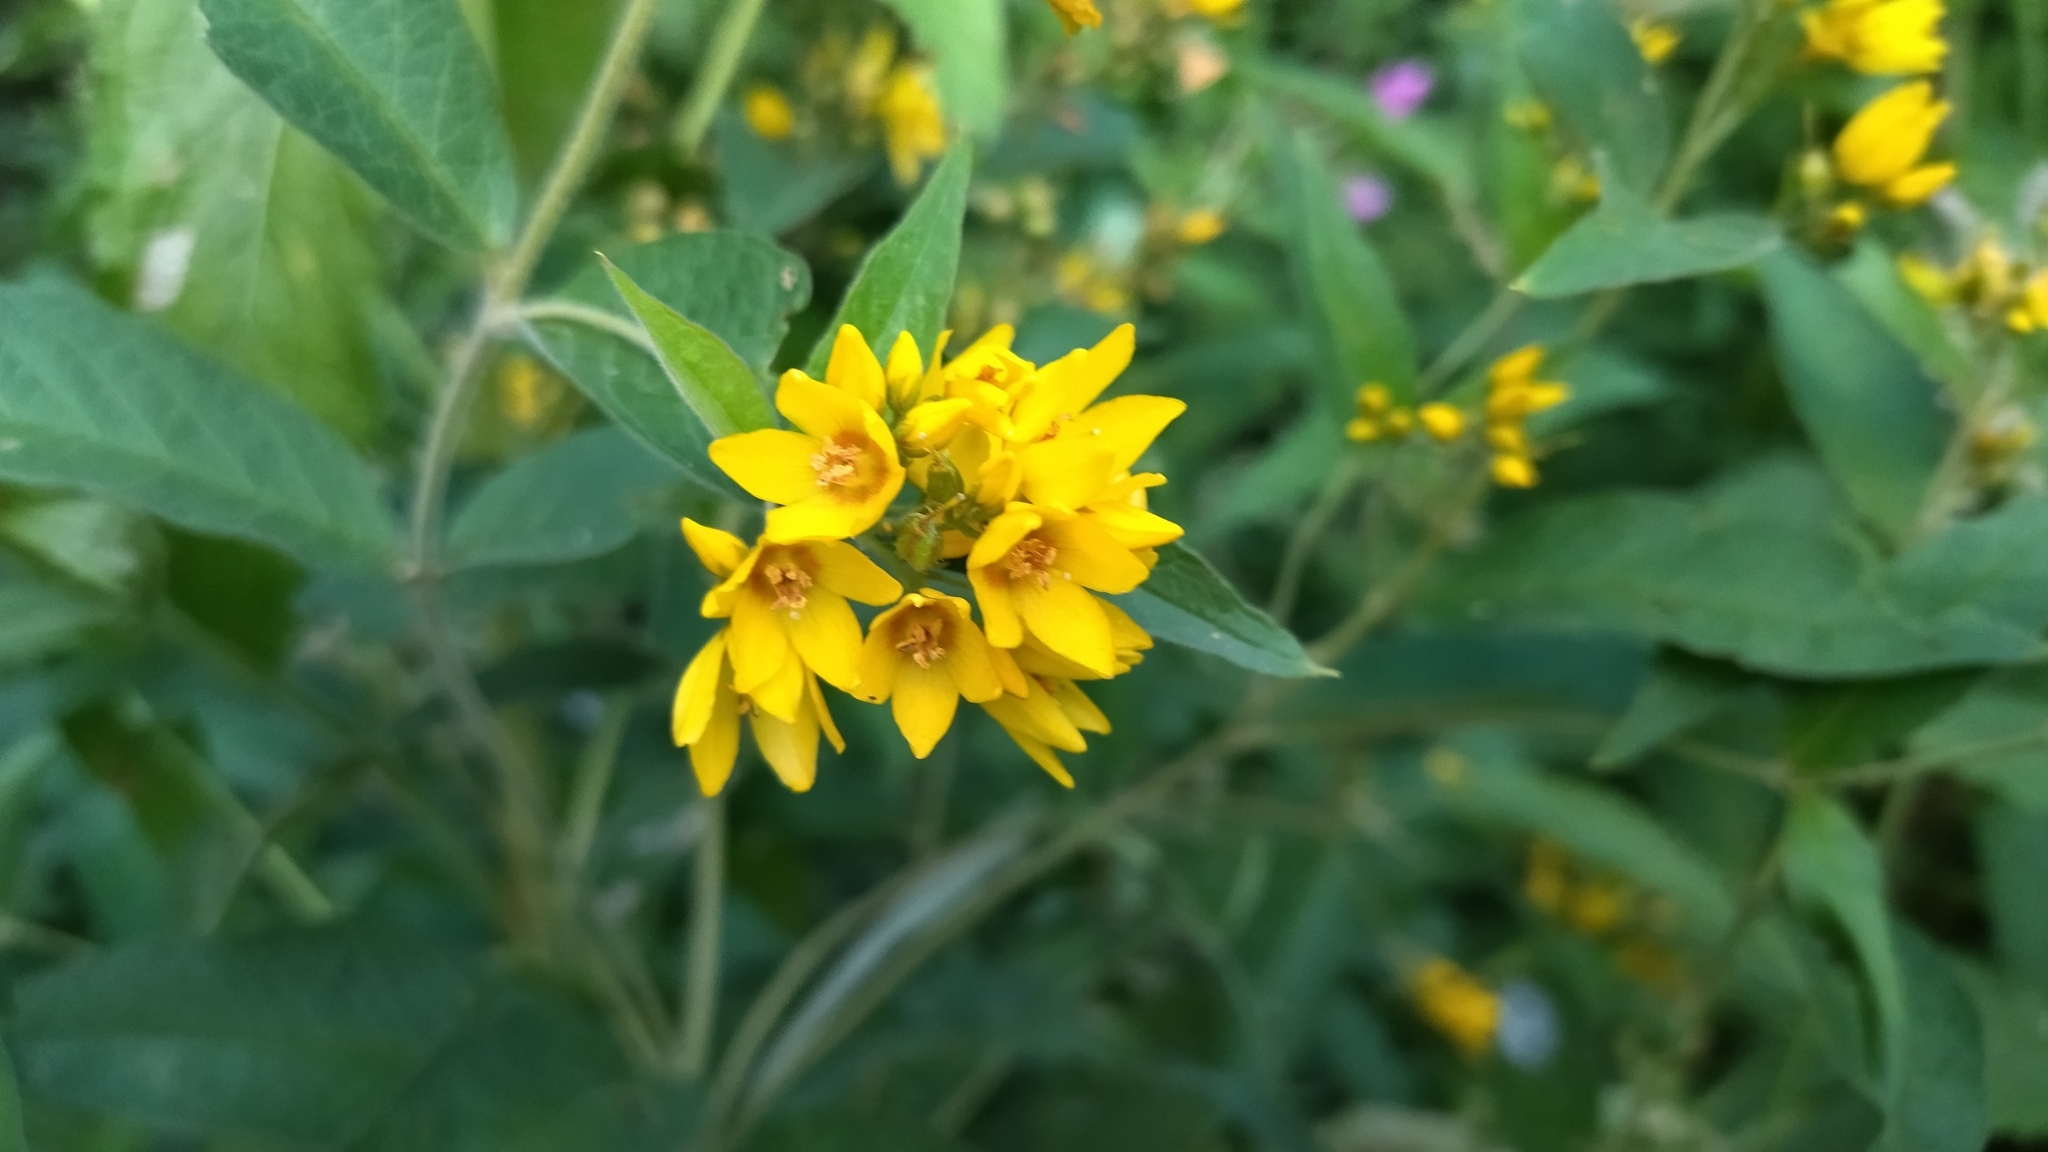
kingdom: Plantae
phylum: Tracheophyta
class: Magnoliopsida
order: Ericales
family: Primulaceae
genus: Lysimachia
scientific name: Lysimachia vulgaris
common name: Yellow loosestrife
